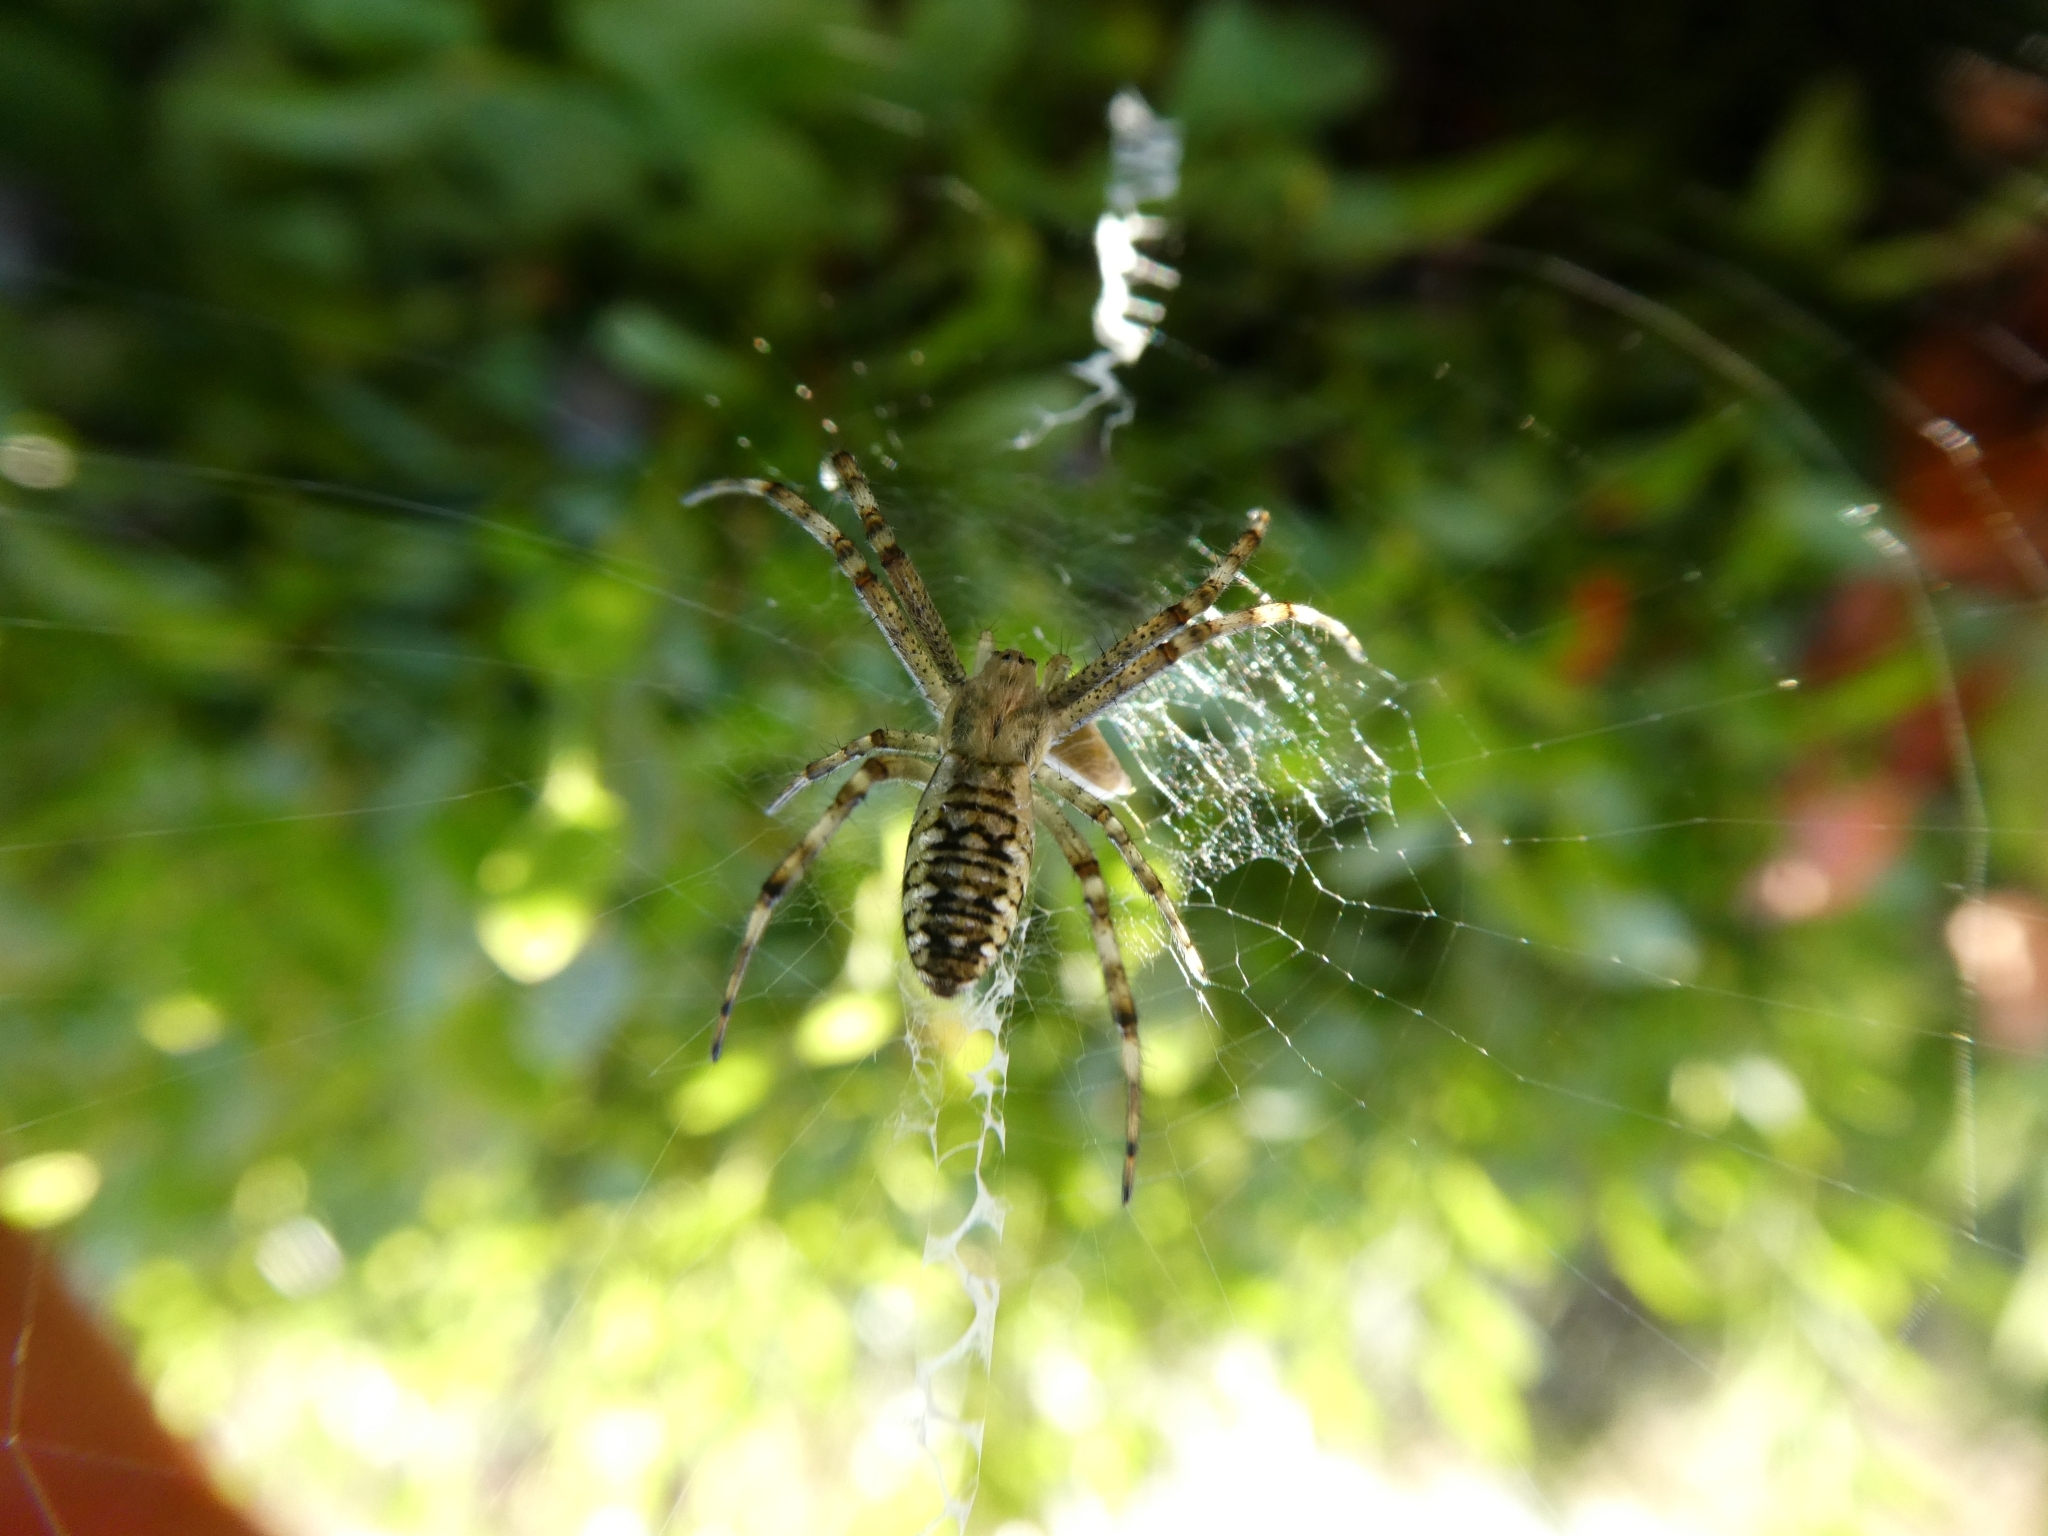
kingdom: Animalia
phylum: Arthropoda
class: Arachnida
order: Araneae
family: Araneidae
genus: Argiope
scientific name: Argiope bruennichi
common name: Wasp spider
